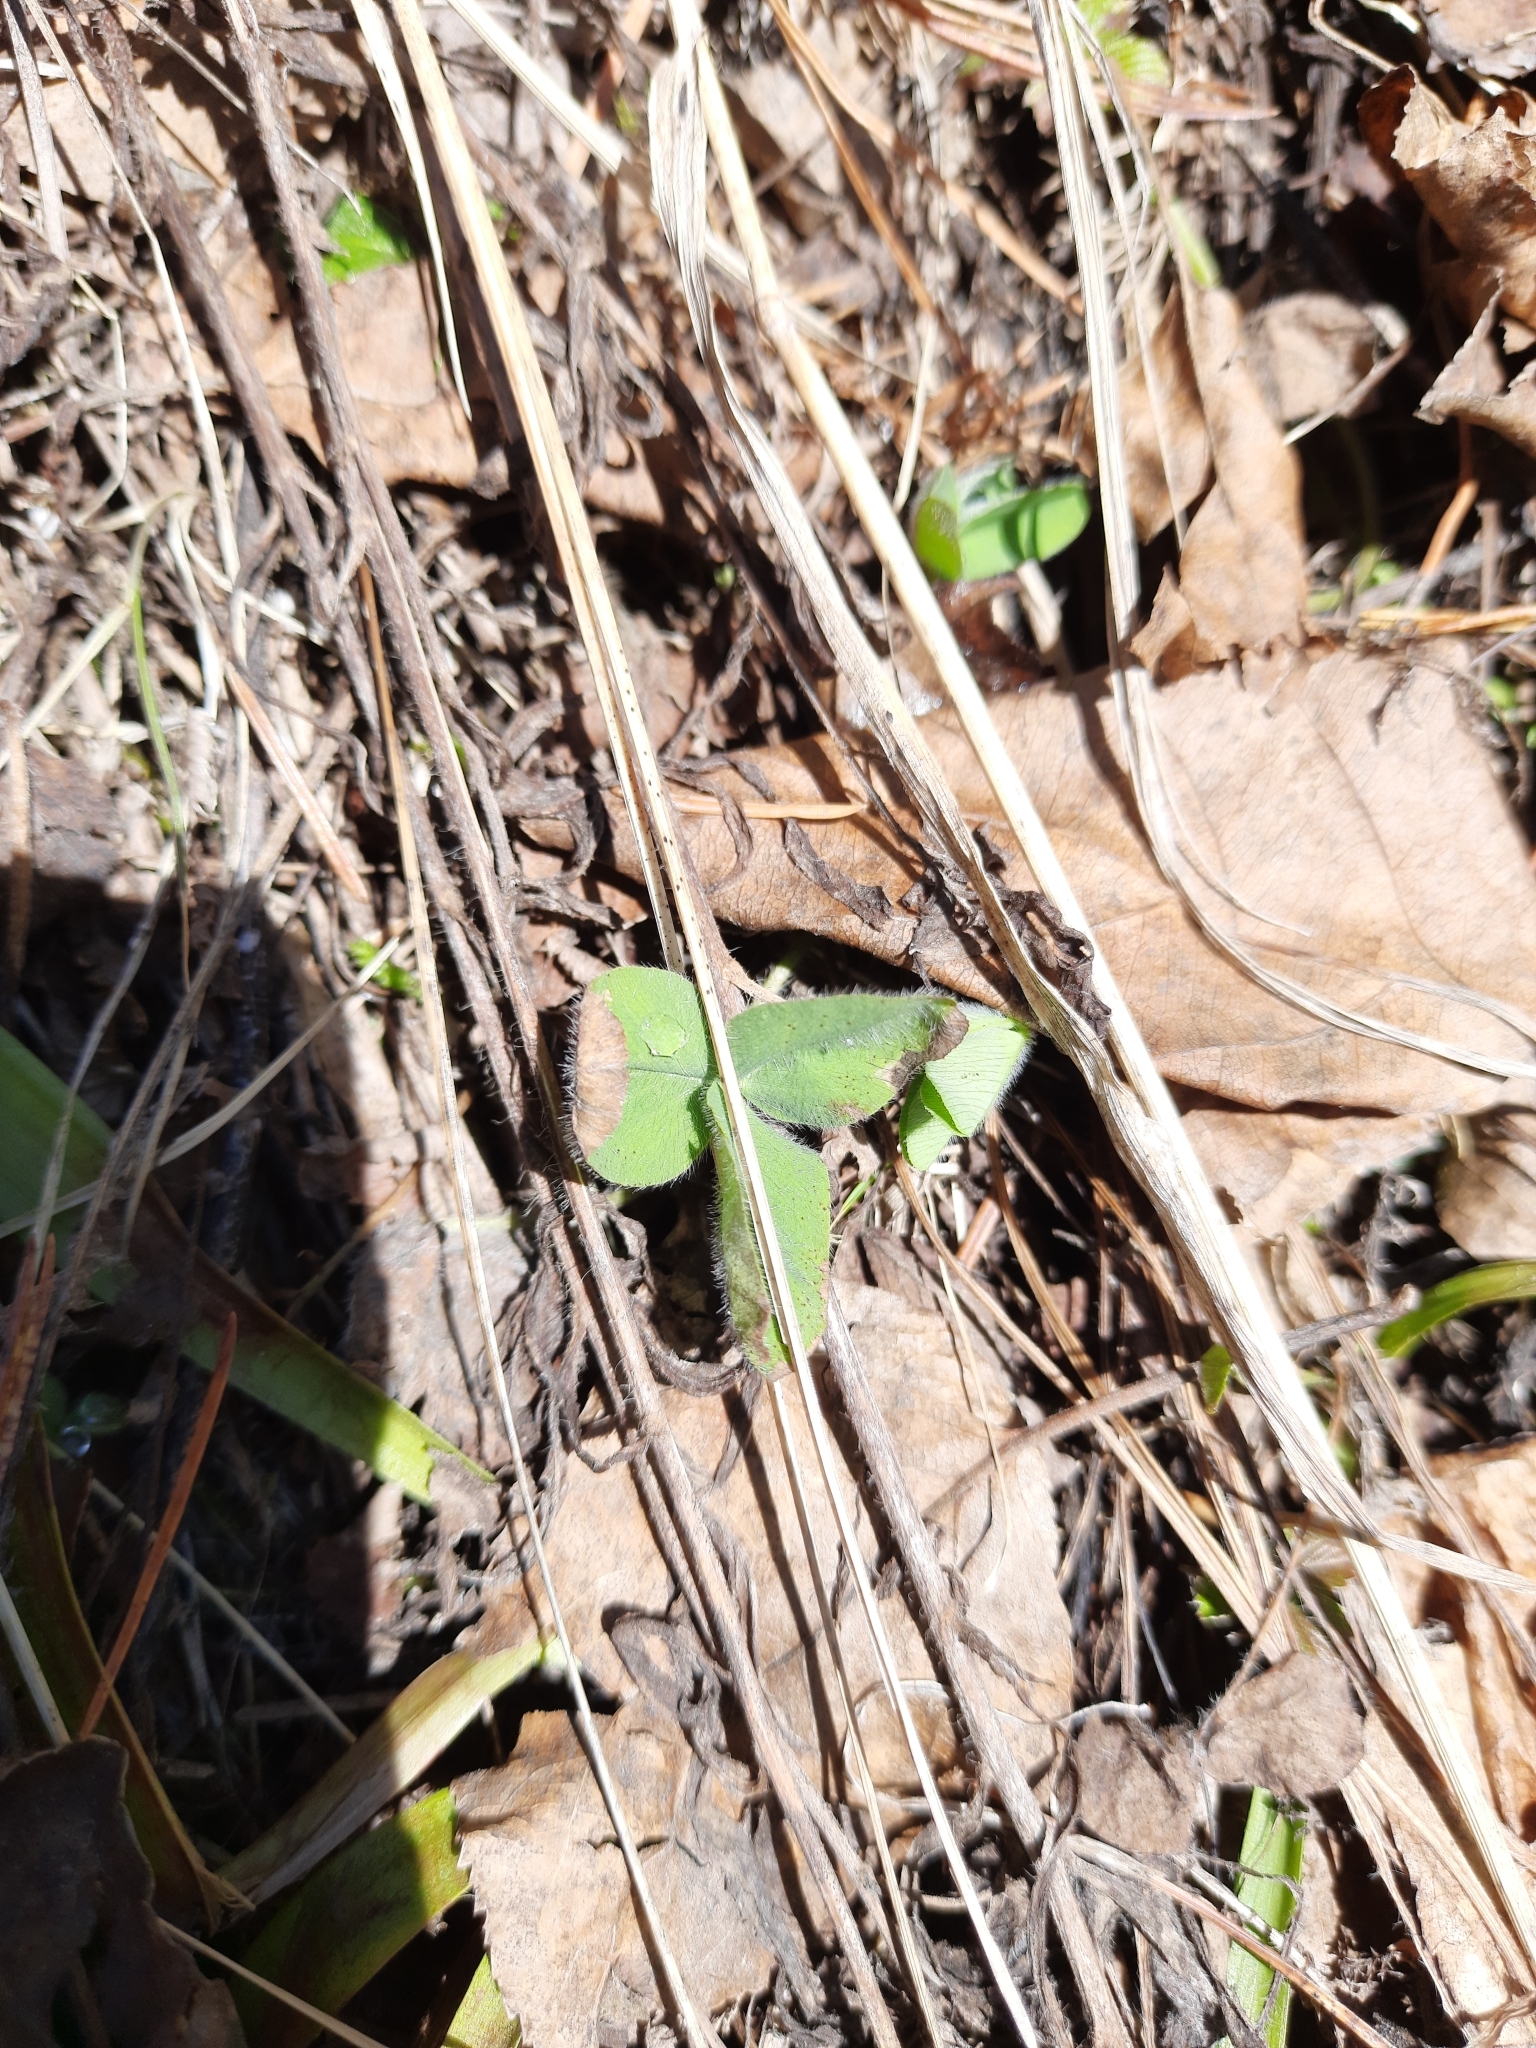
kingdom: Plantae
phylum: Tracheophyta
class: Magnoliopsida
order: Fabales
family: Fabaceae
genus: Trifolium
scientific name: Trifolium pratense
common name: Red clover
